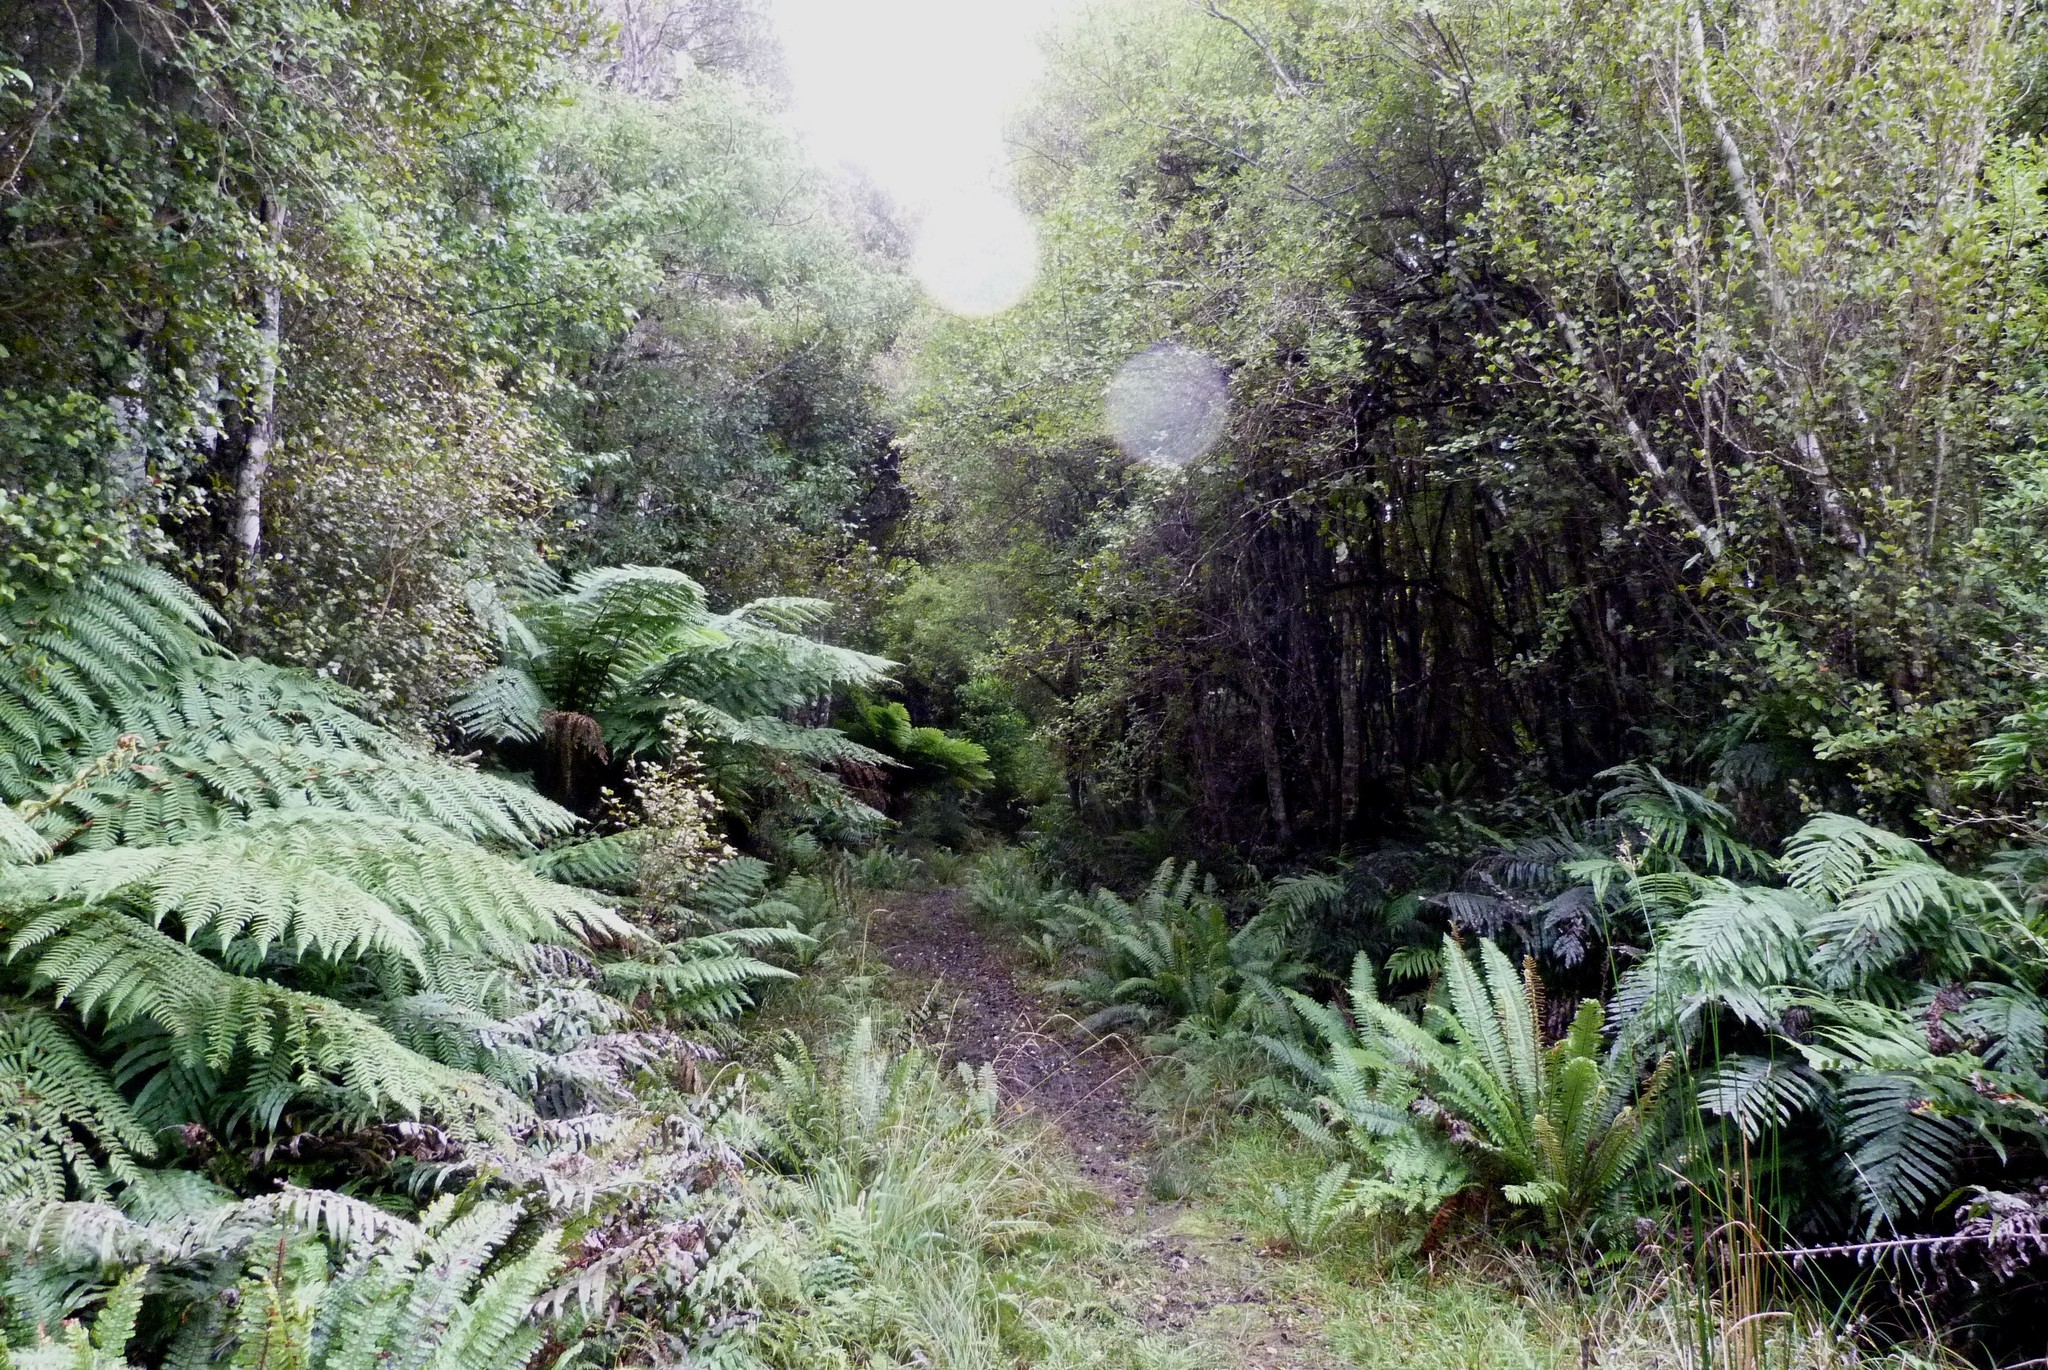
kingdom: Plantae
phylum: Tracheophyta
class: Magnoliopsida
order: Oxalidales
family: Cunoniaceae
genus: Pterophylla
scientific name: Pterophylla racemosa
